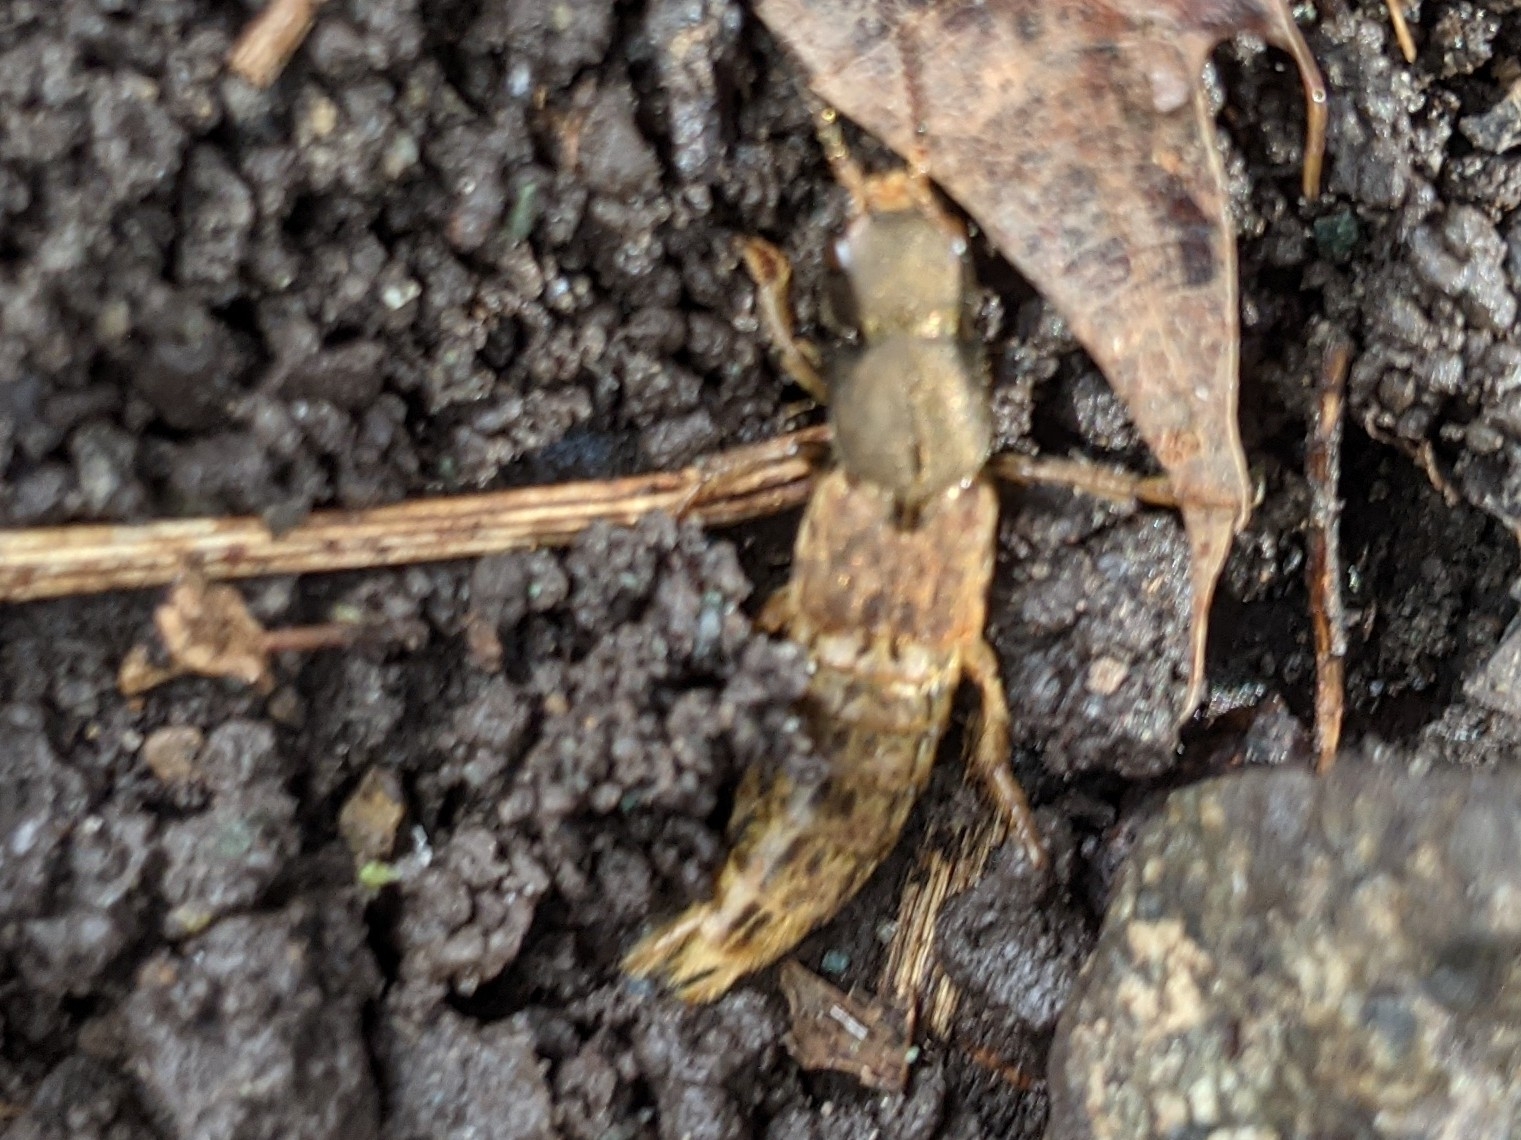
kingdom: Animalia
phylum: Arthropoda
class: Insecta
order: Coleoptera
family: Staphylinidae
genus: Platydracus
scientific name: Platydracus maculosus
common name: Brown rove beetle
